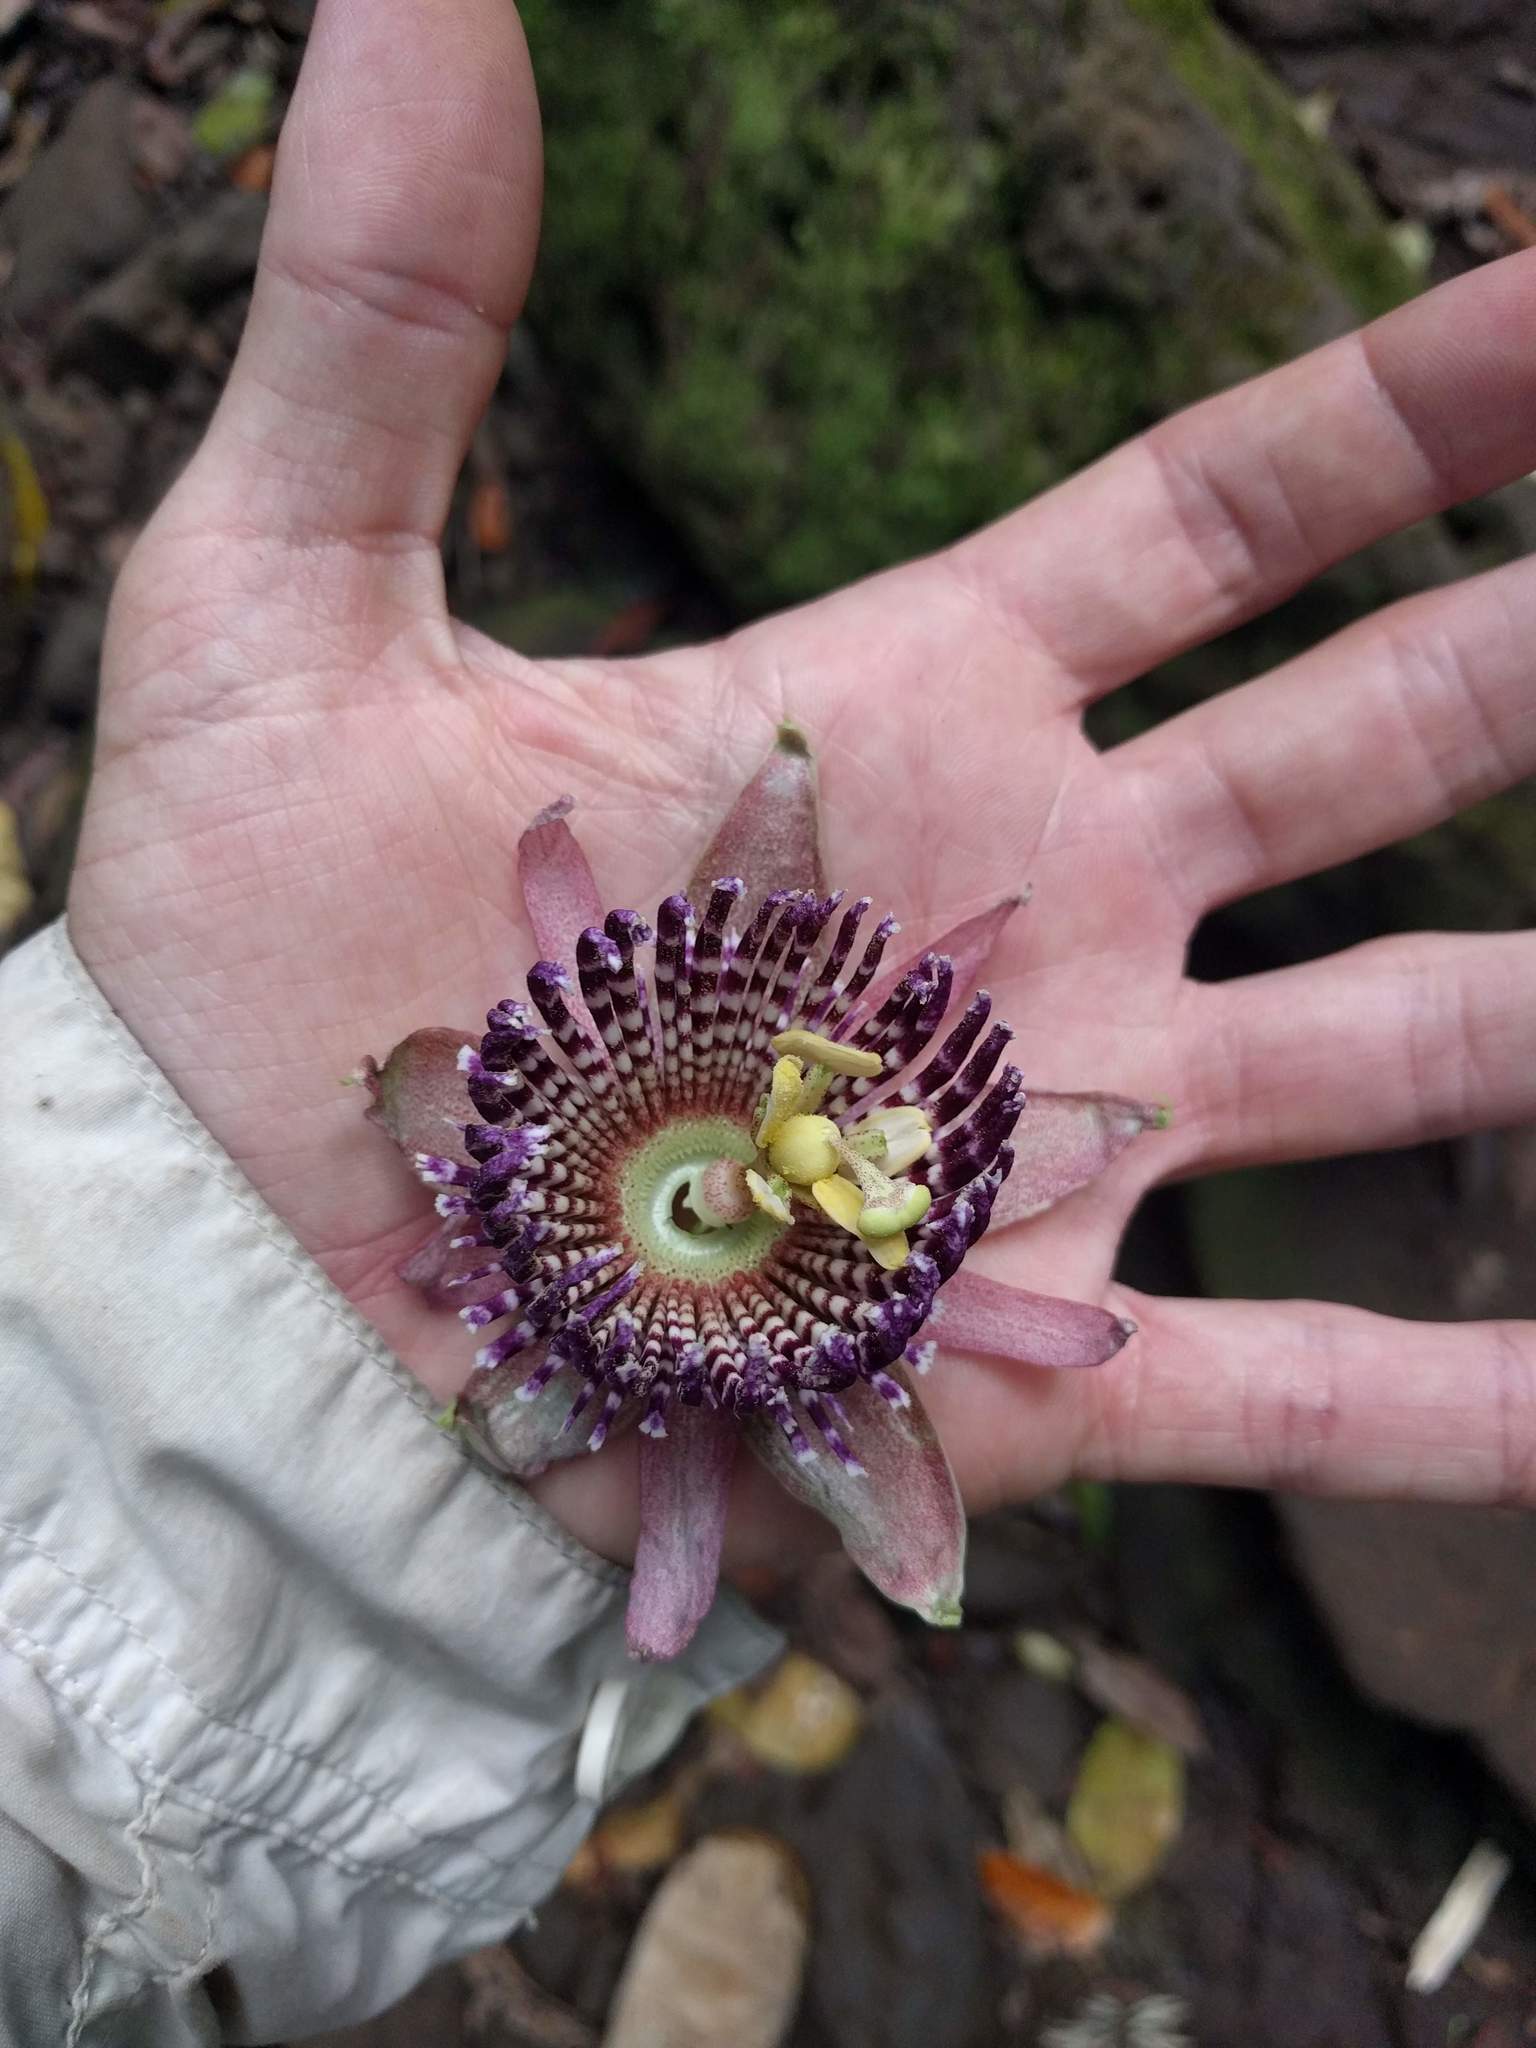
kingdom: Plantae
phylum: Tracheophyta
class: Magnoliopsida
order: Malpighiales
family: Passifloraceae
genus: Passiflora
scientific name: Passiflora laurifolia
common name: Bell apple
